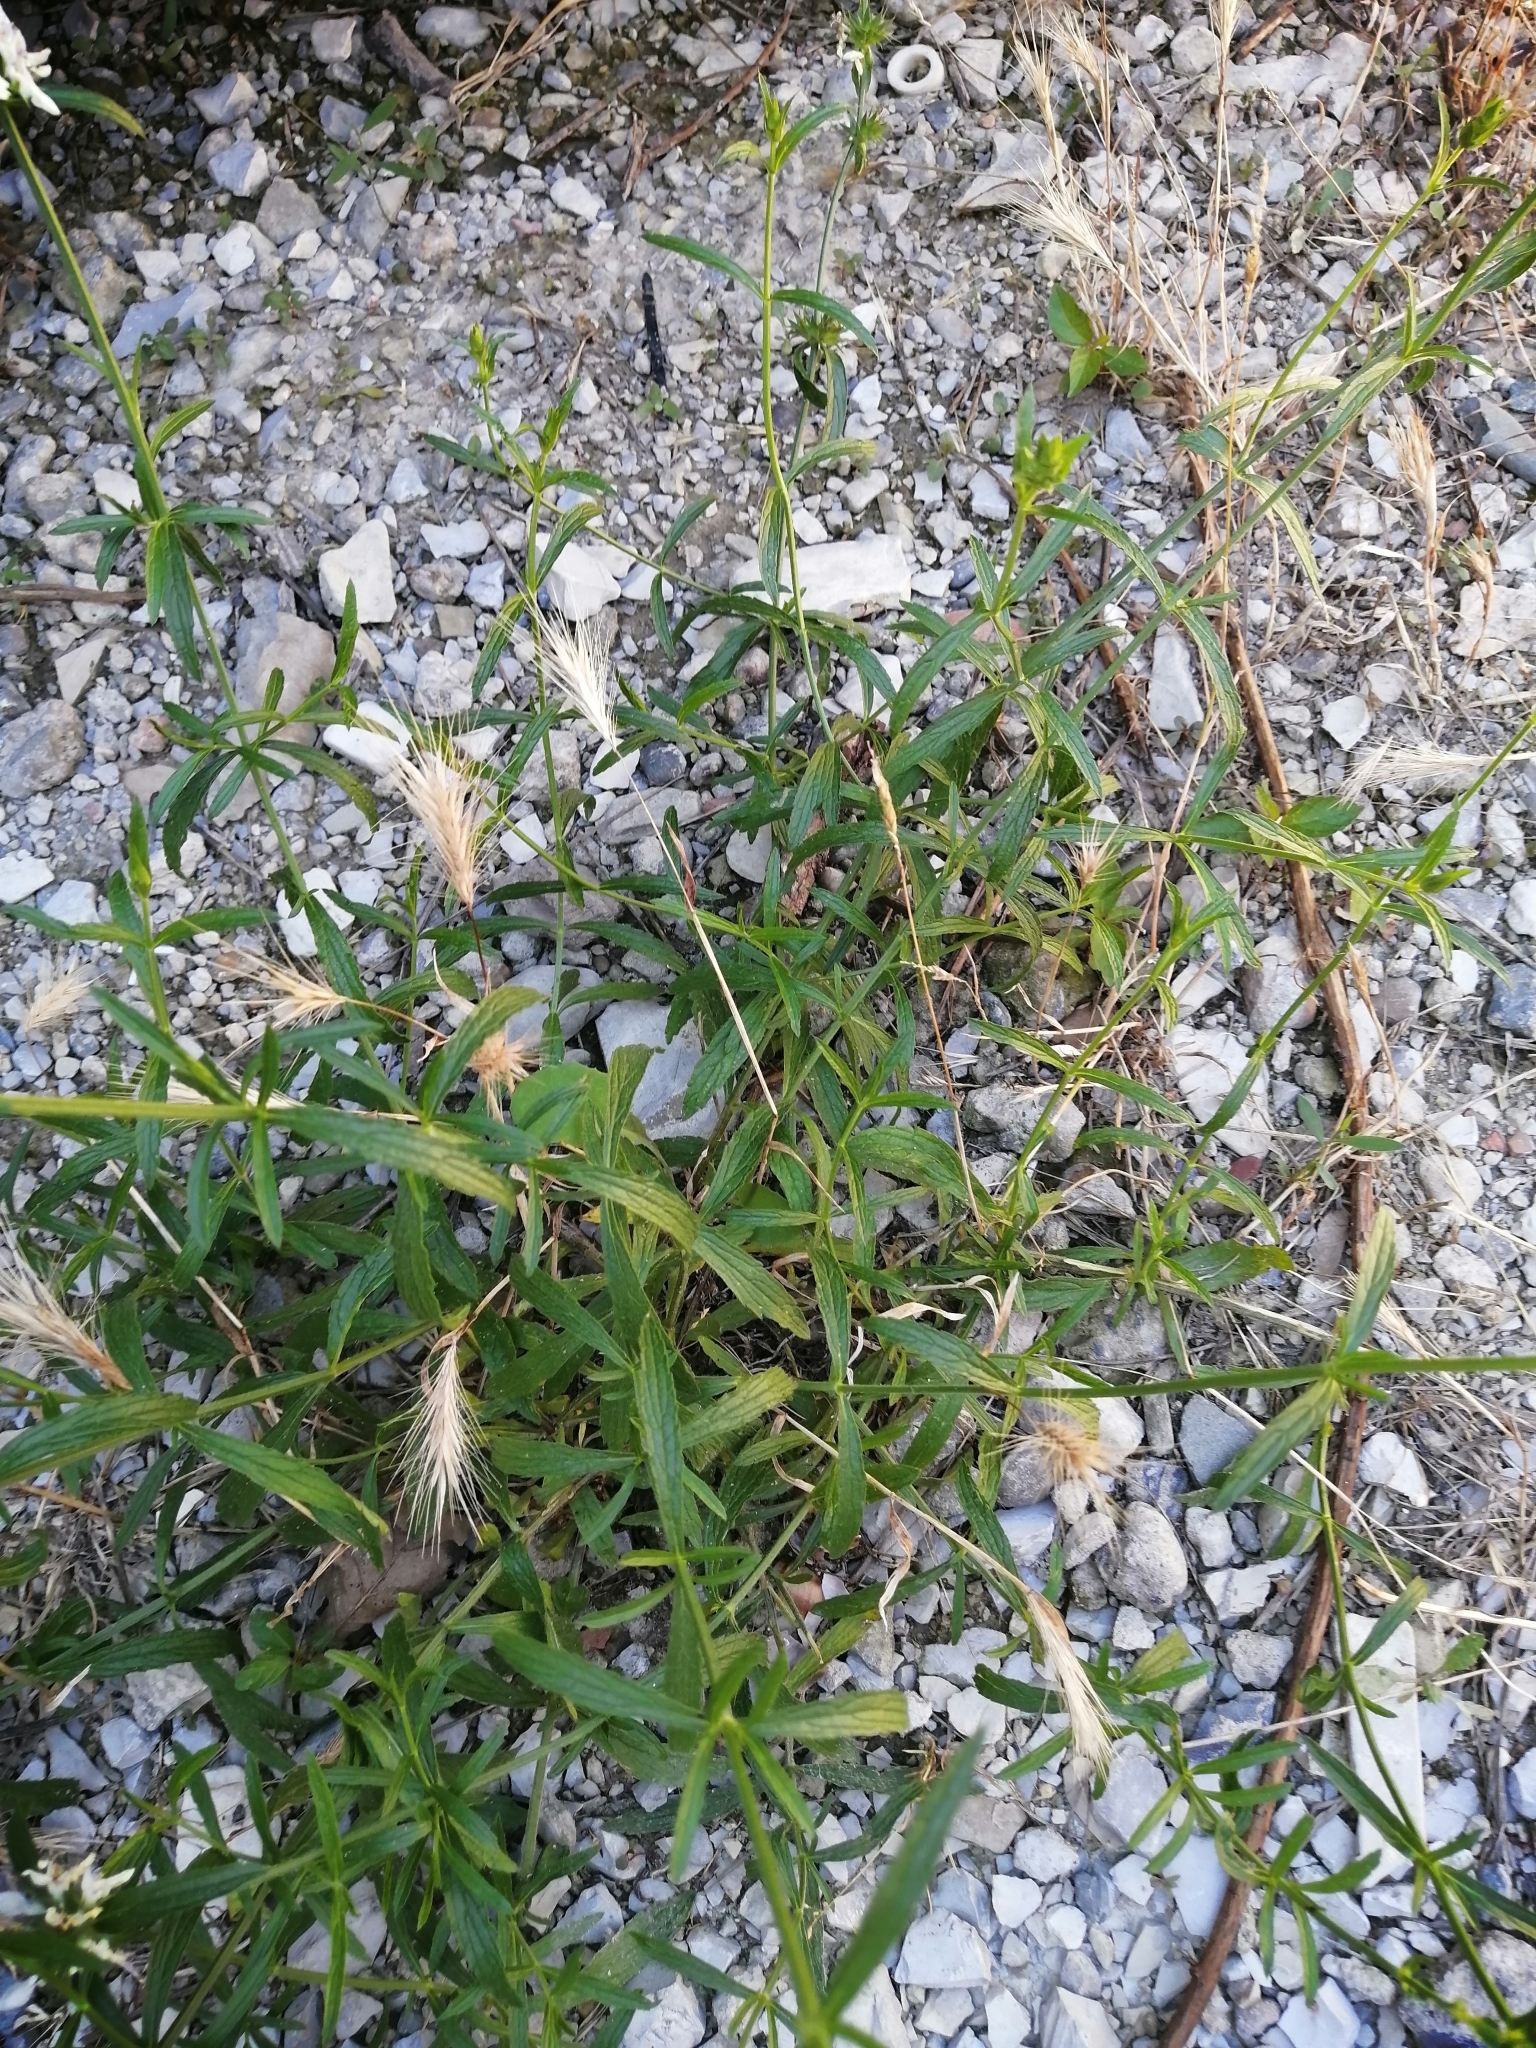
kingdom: Plantae
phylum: Tracheophyta
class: Magnoliopsida
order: Lamiales
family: Lamiaceae
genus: Stachys
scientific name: Stachys atherocalyx
